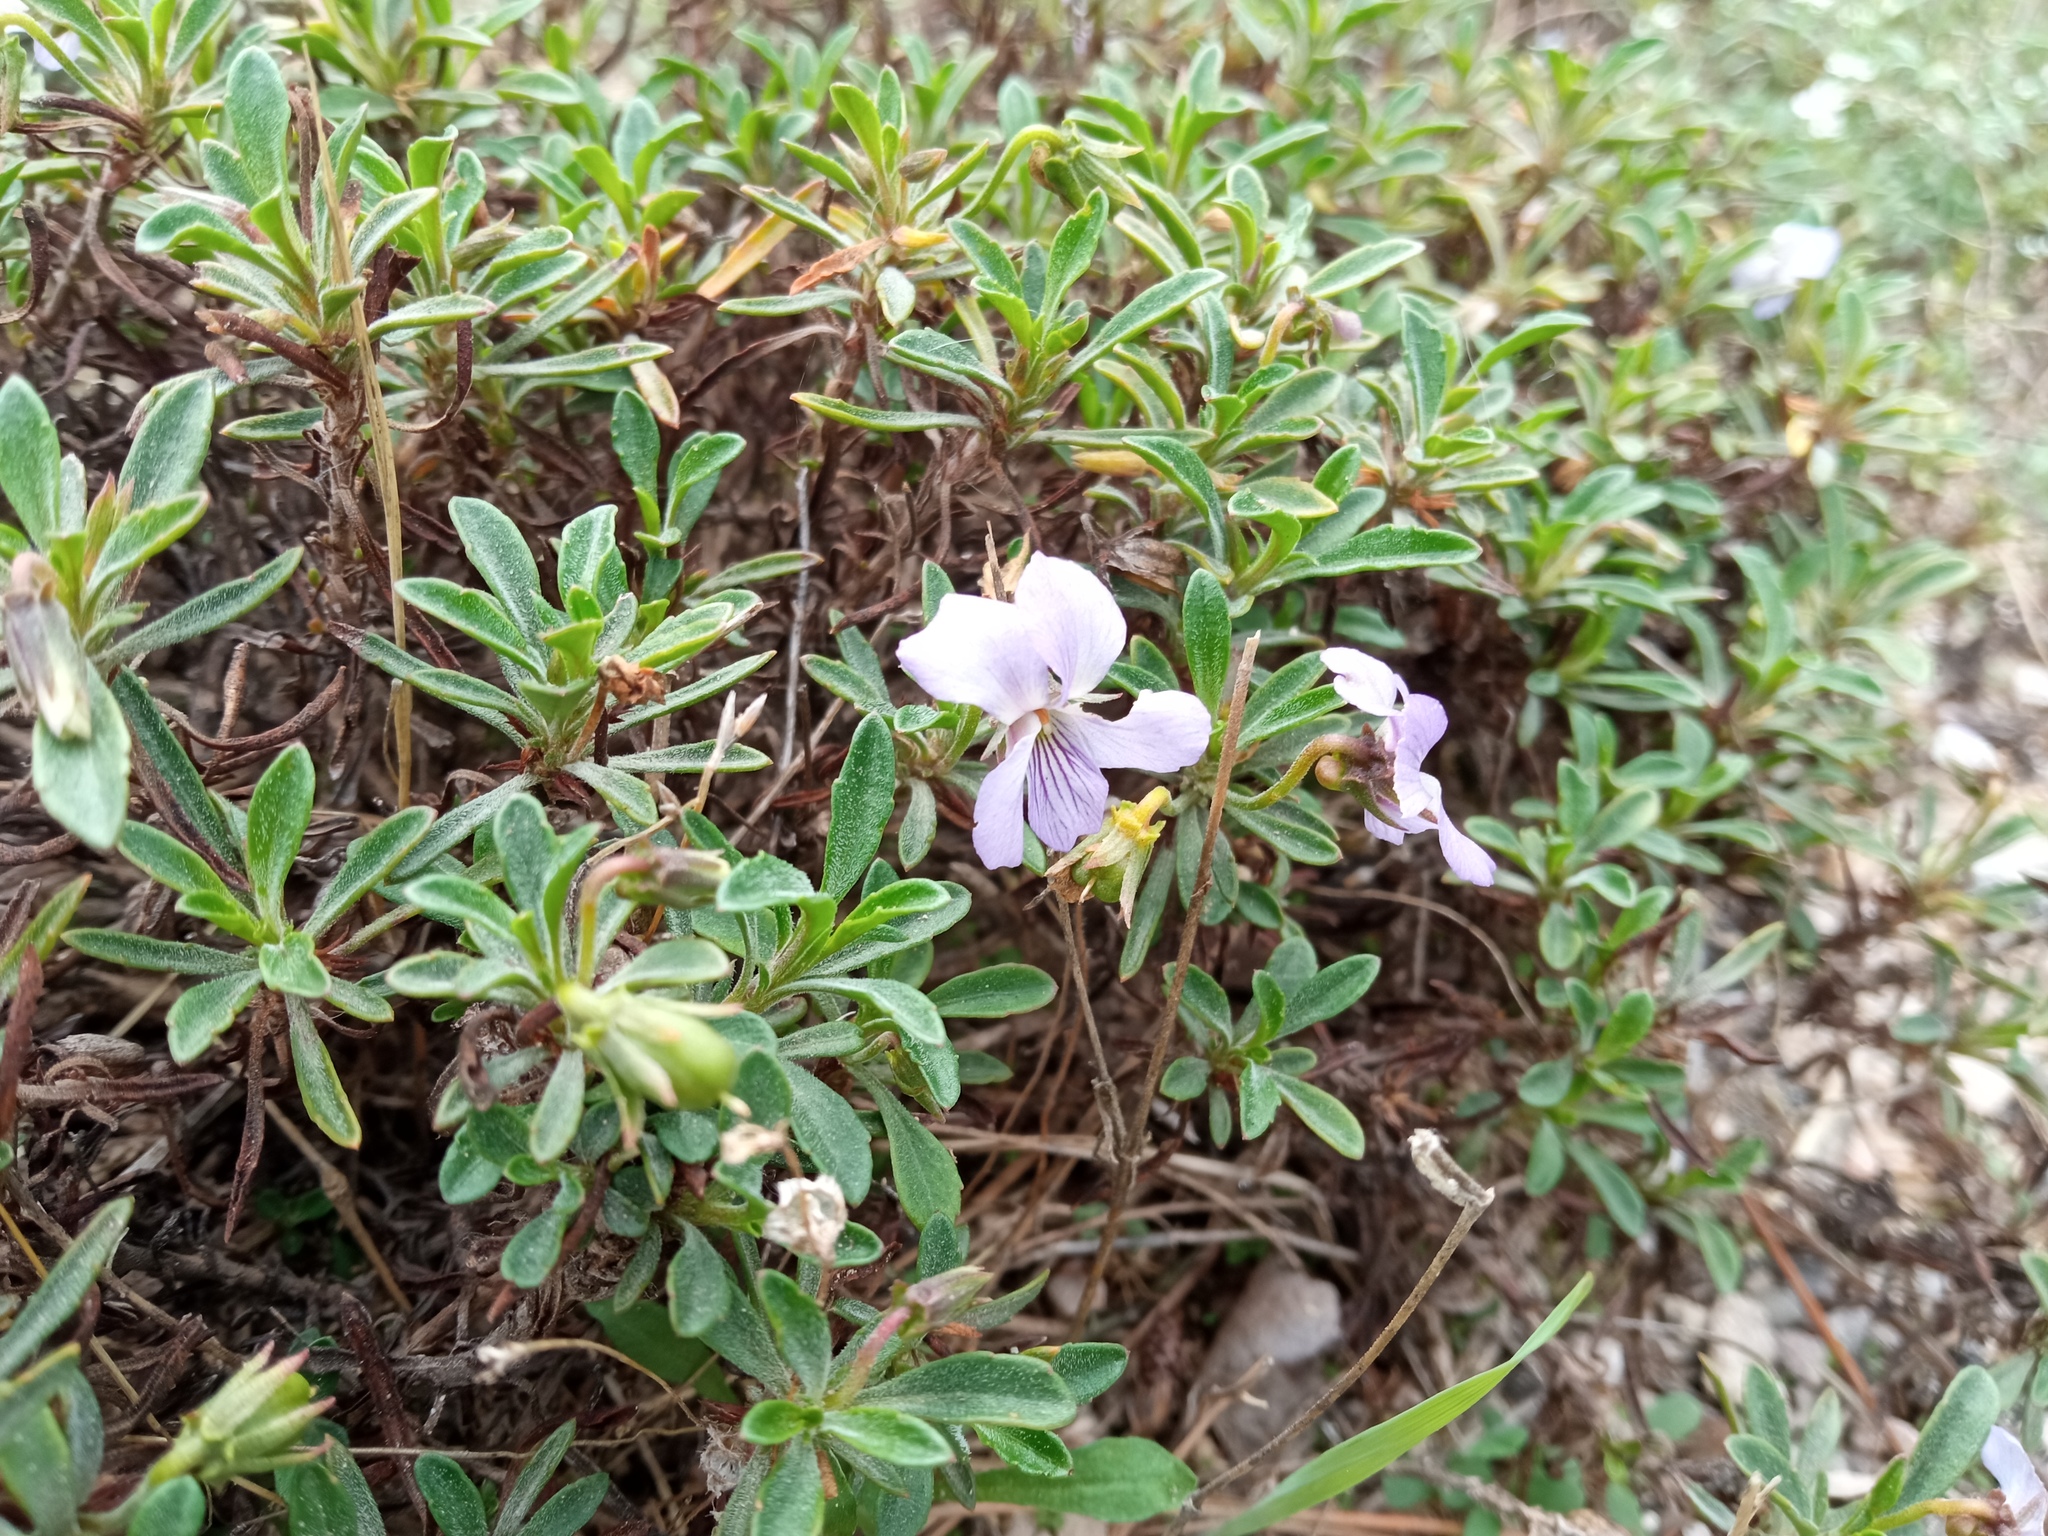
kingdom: Plantae
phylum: Tracheophyta
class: Magnoliopsida
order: Malpighiales
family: Violaceae
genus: Viola
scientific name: Viola arborescens
